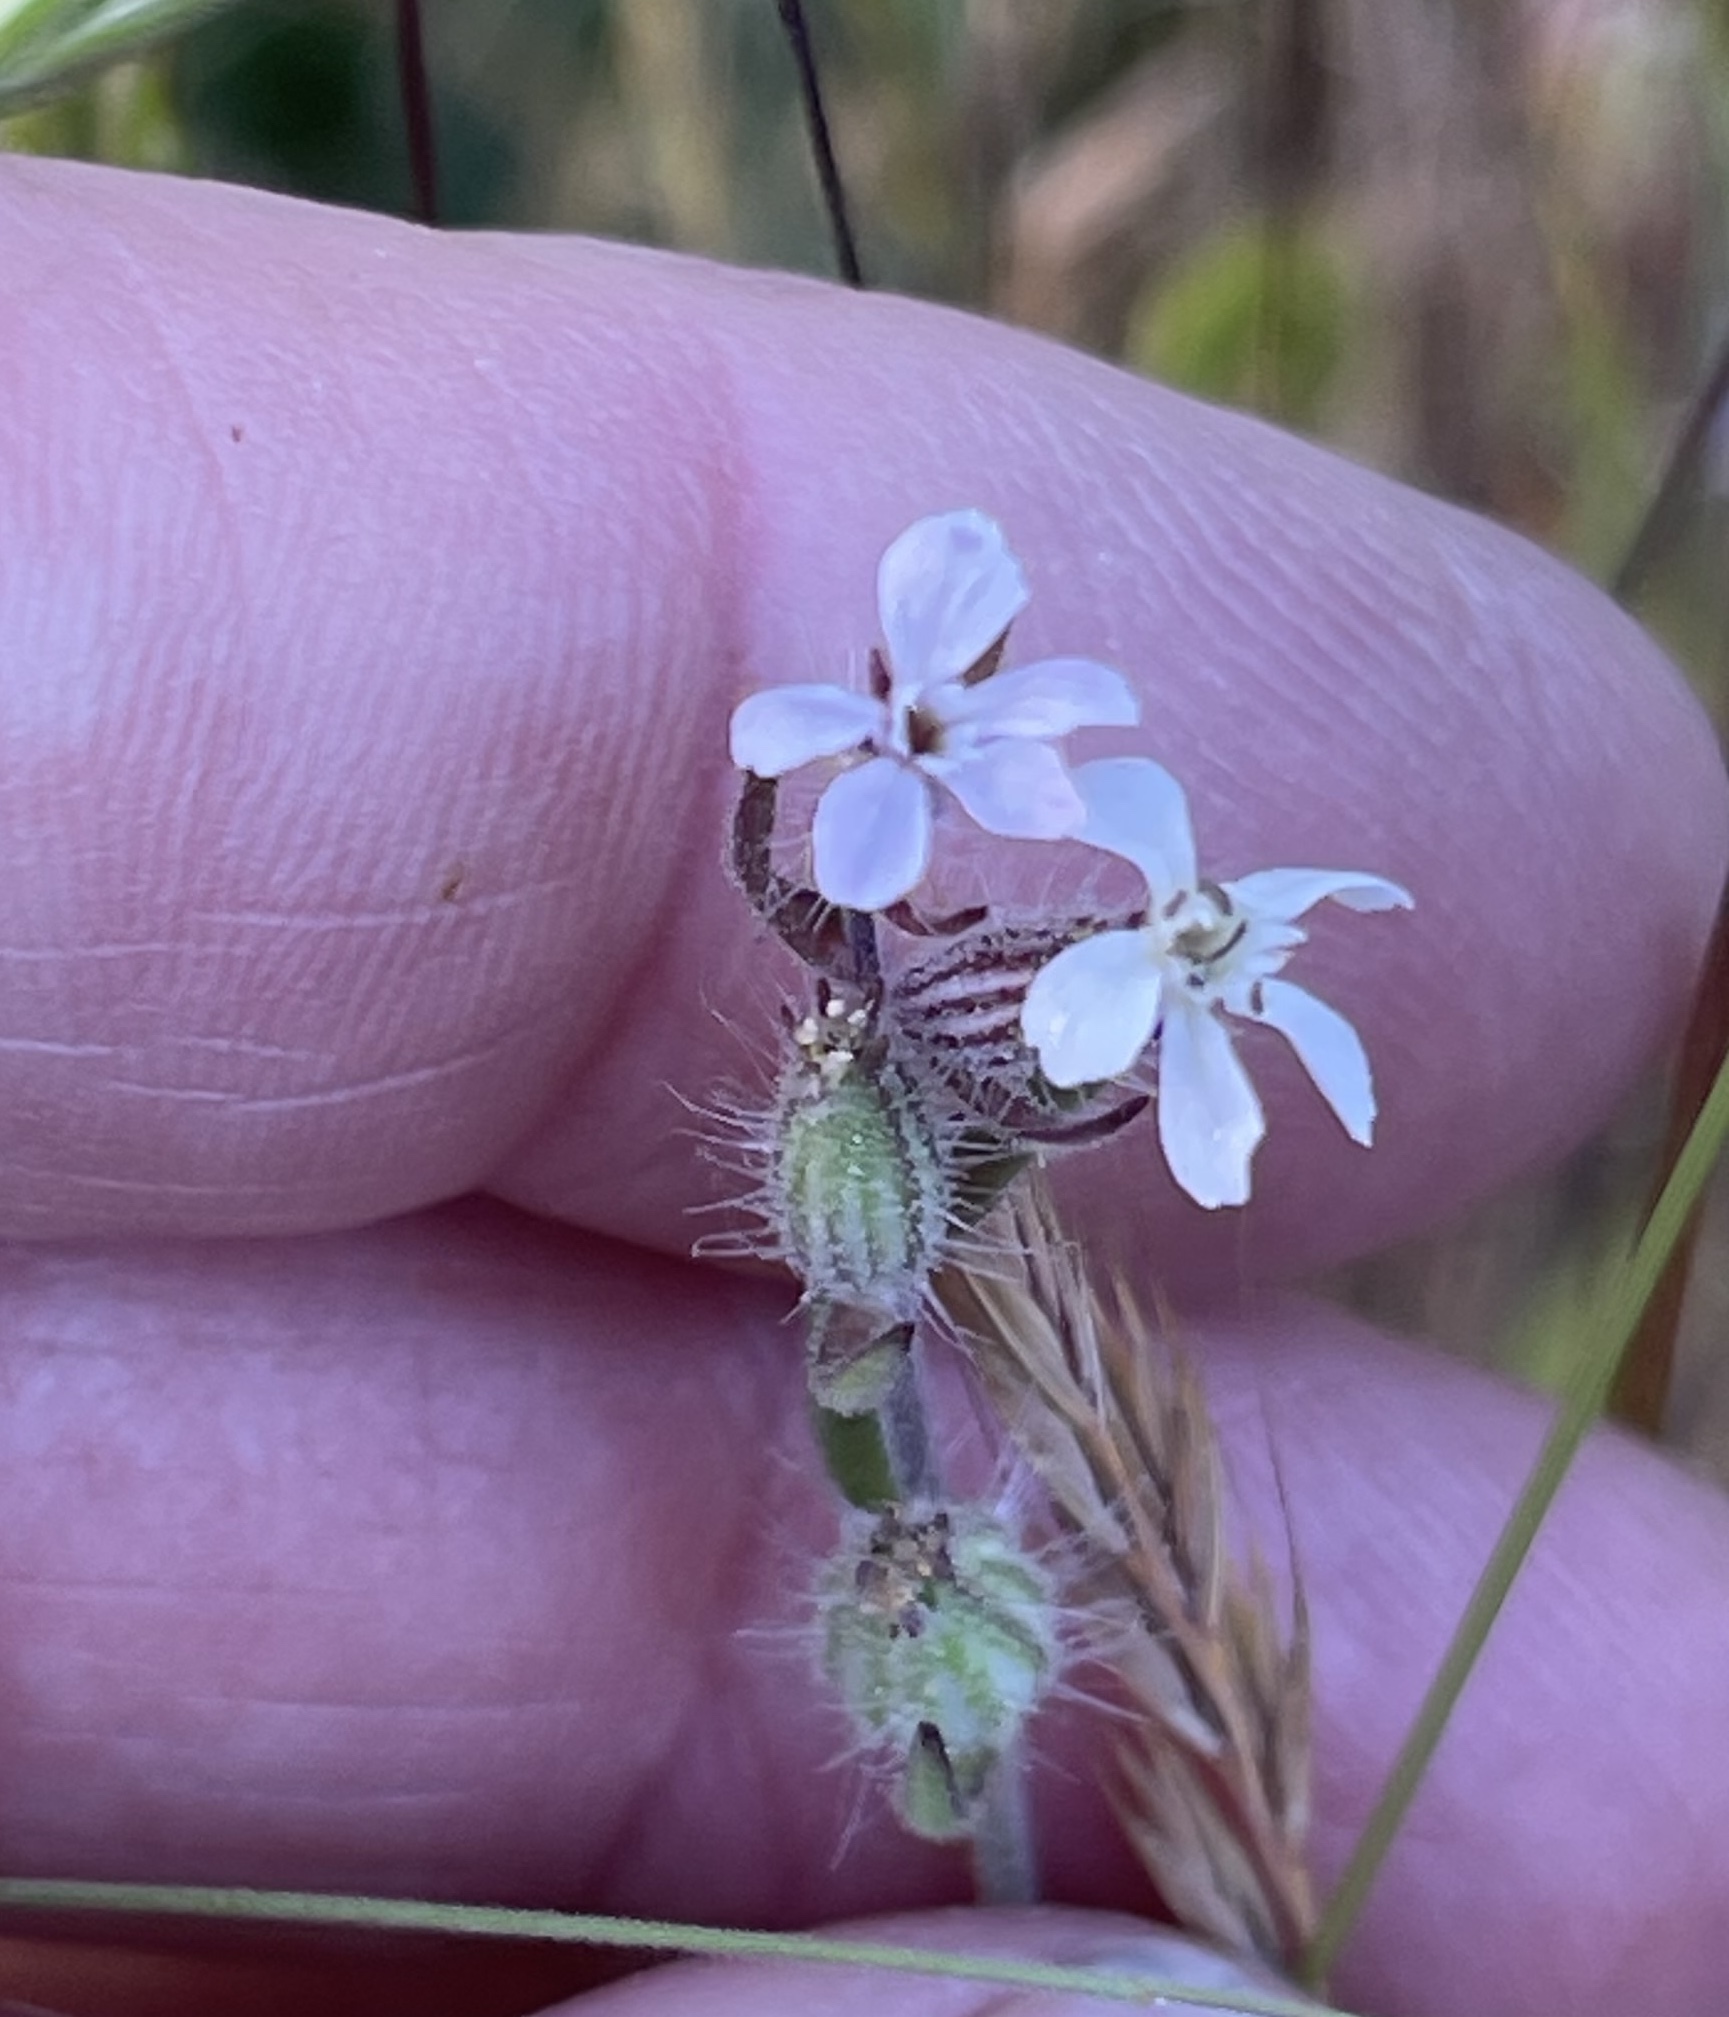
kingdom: Plantae
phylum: Tracheophyta
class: Magnoliopsida
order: Caryophyllales
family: Caryophyllaceae
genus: Silene
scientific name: Silene gallica
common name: Small-flowered catchfly
